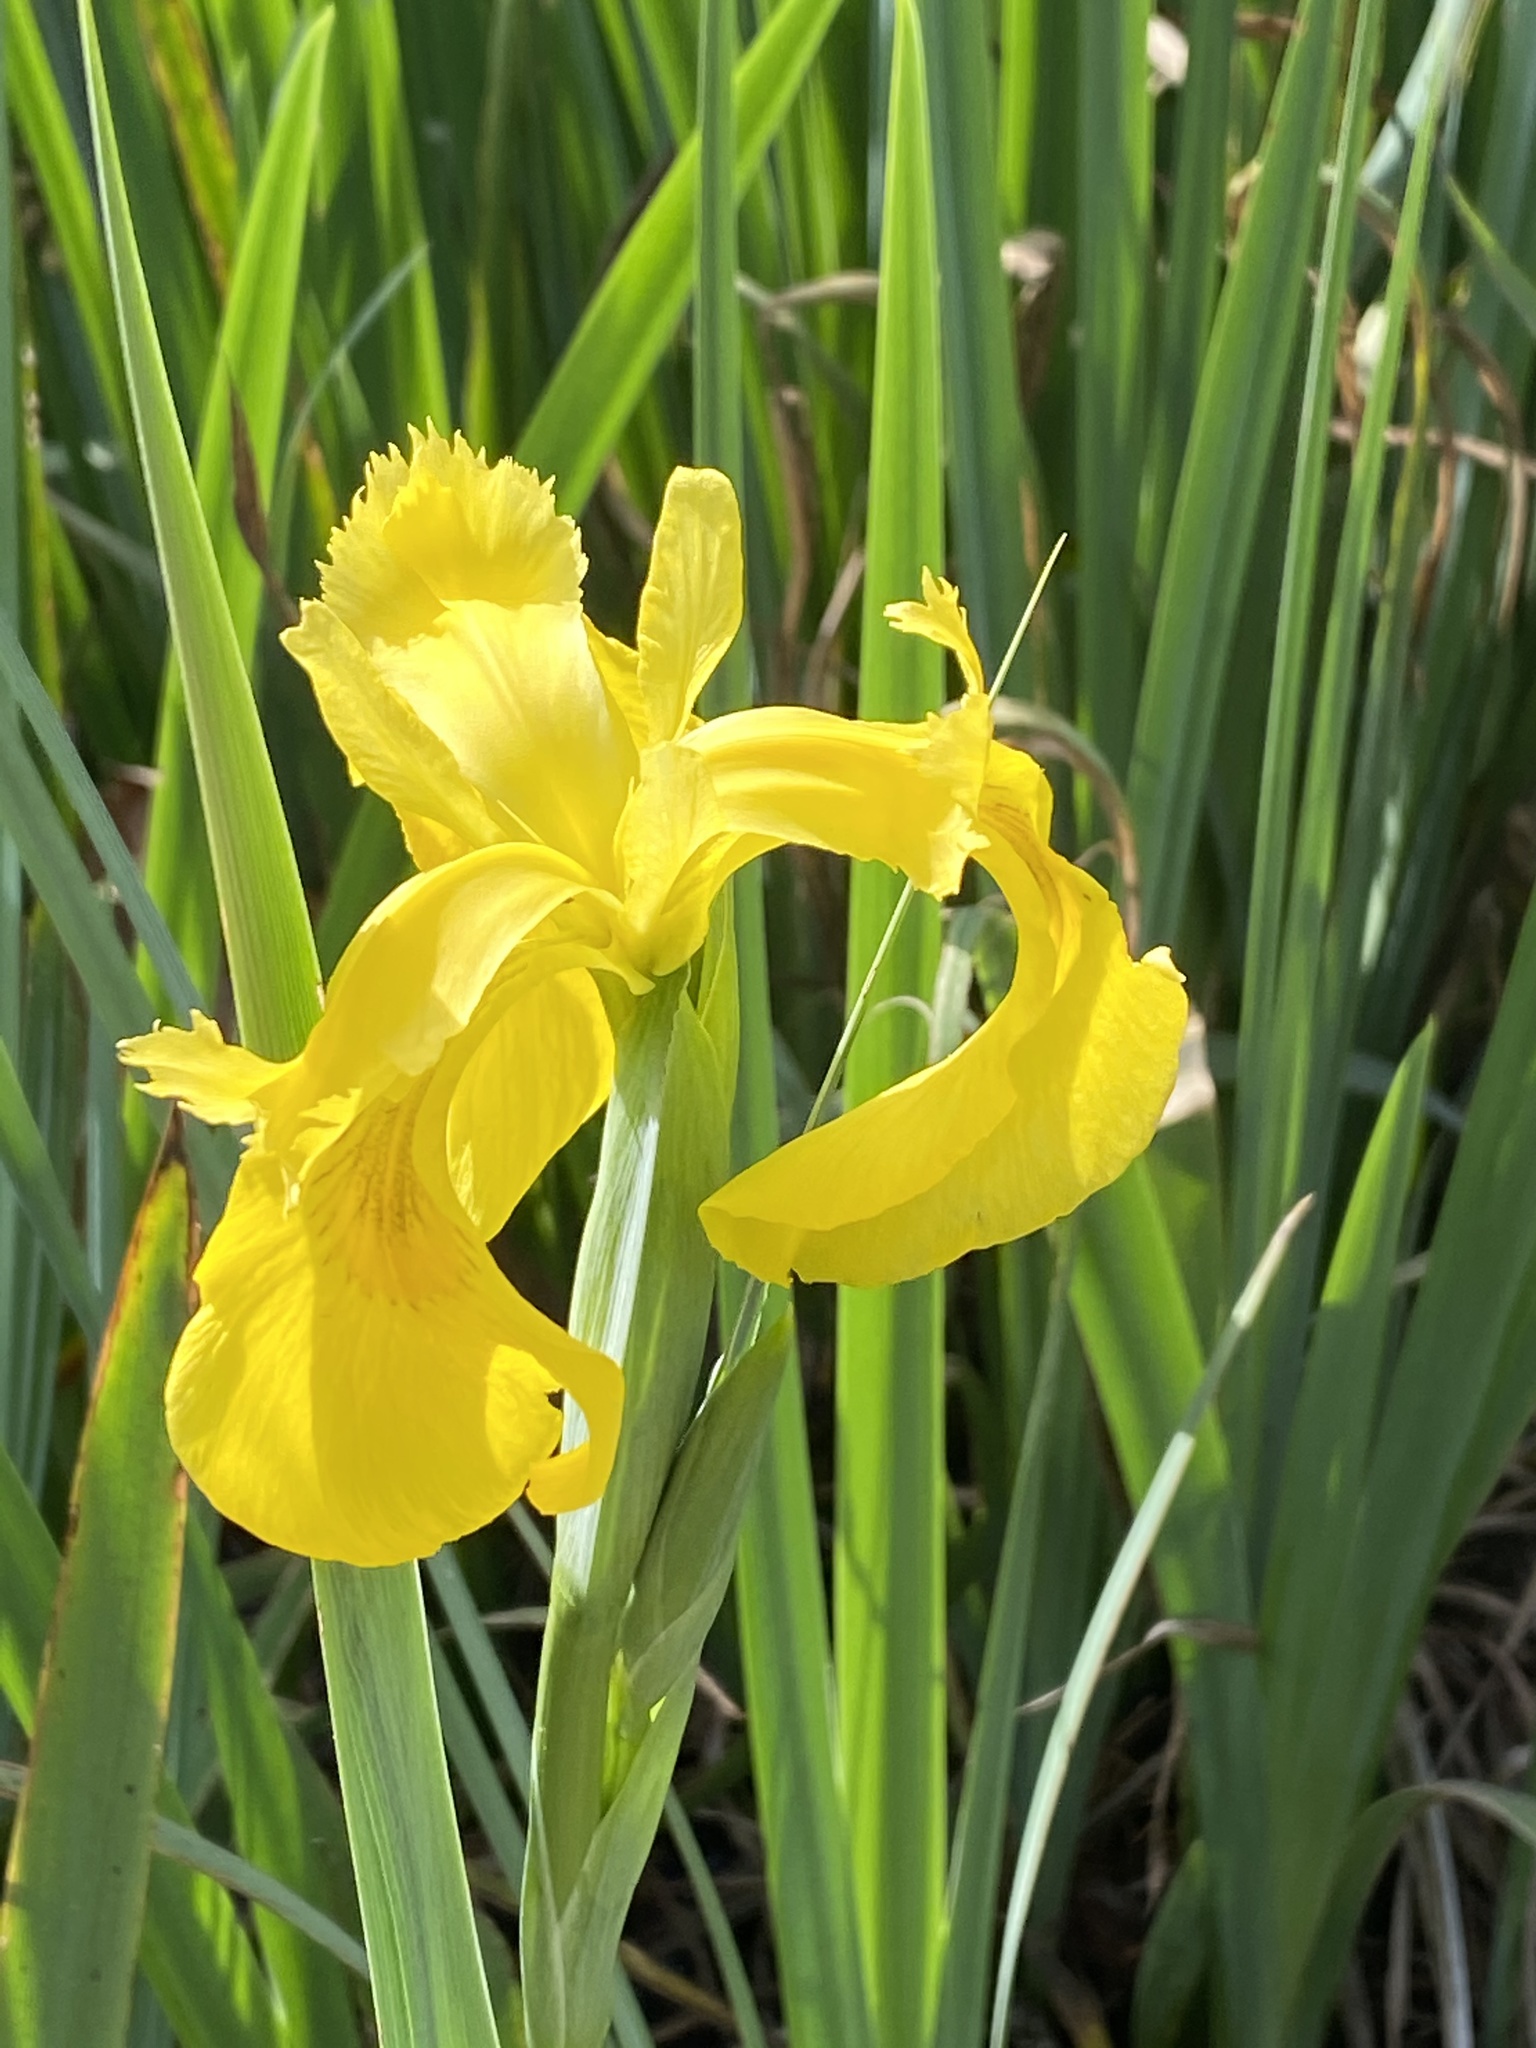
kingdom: Plantae
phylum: Tracheophyta
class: Liliopsida
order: Asparagales
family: Iridaceae
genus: Iris
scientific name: Iris pseudacorus
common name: Yellow flag
